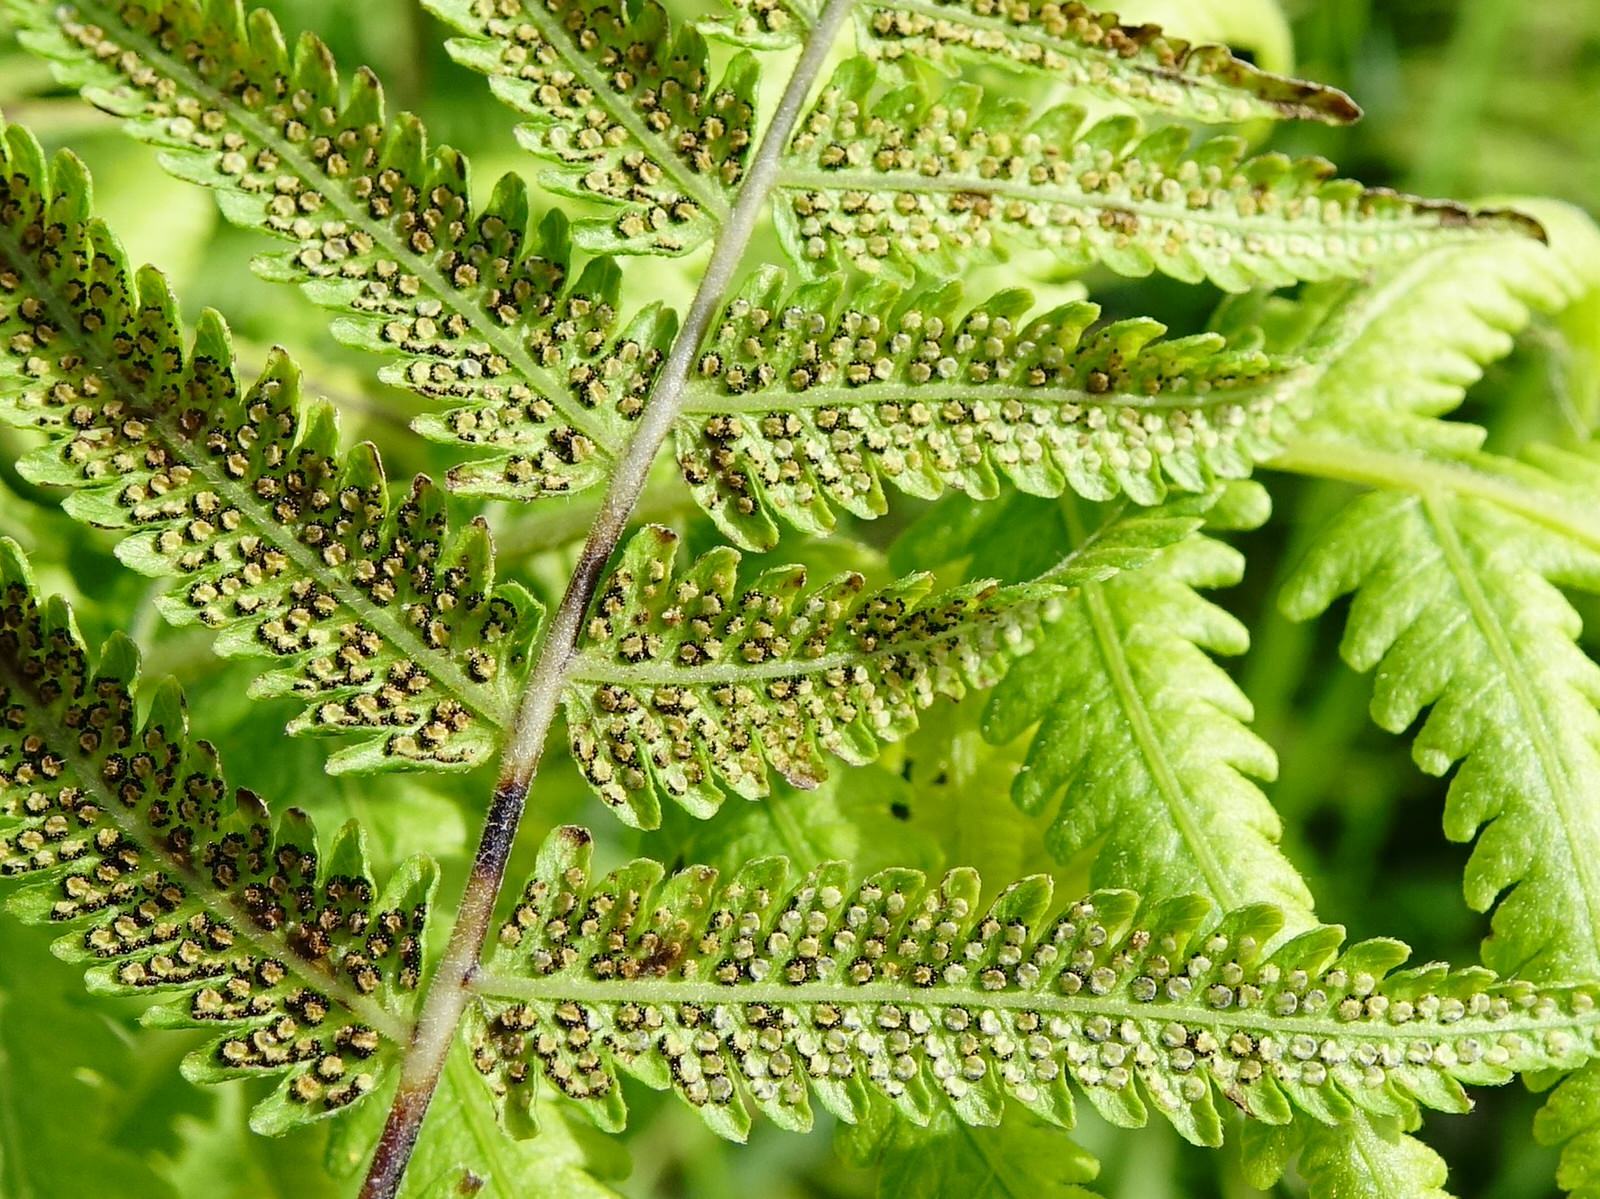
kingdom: Plantae
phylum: Tracheophyta
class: Polypodiopsida
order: Polypodiales
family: Thelypteridaceae
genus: Christella
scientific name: Christella dentata
